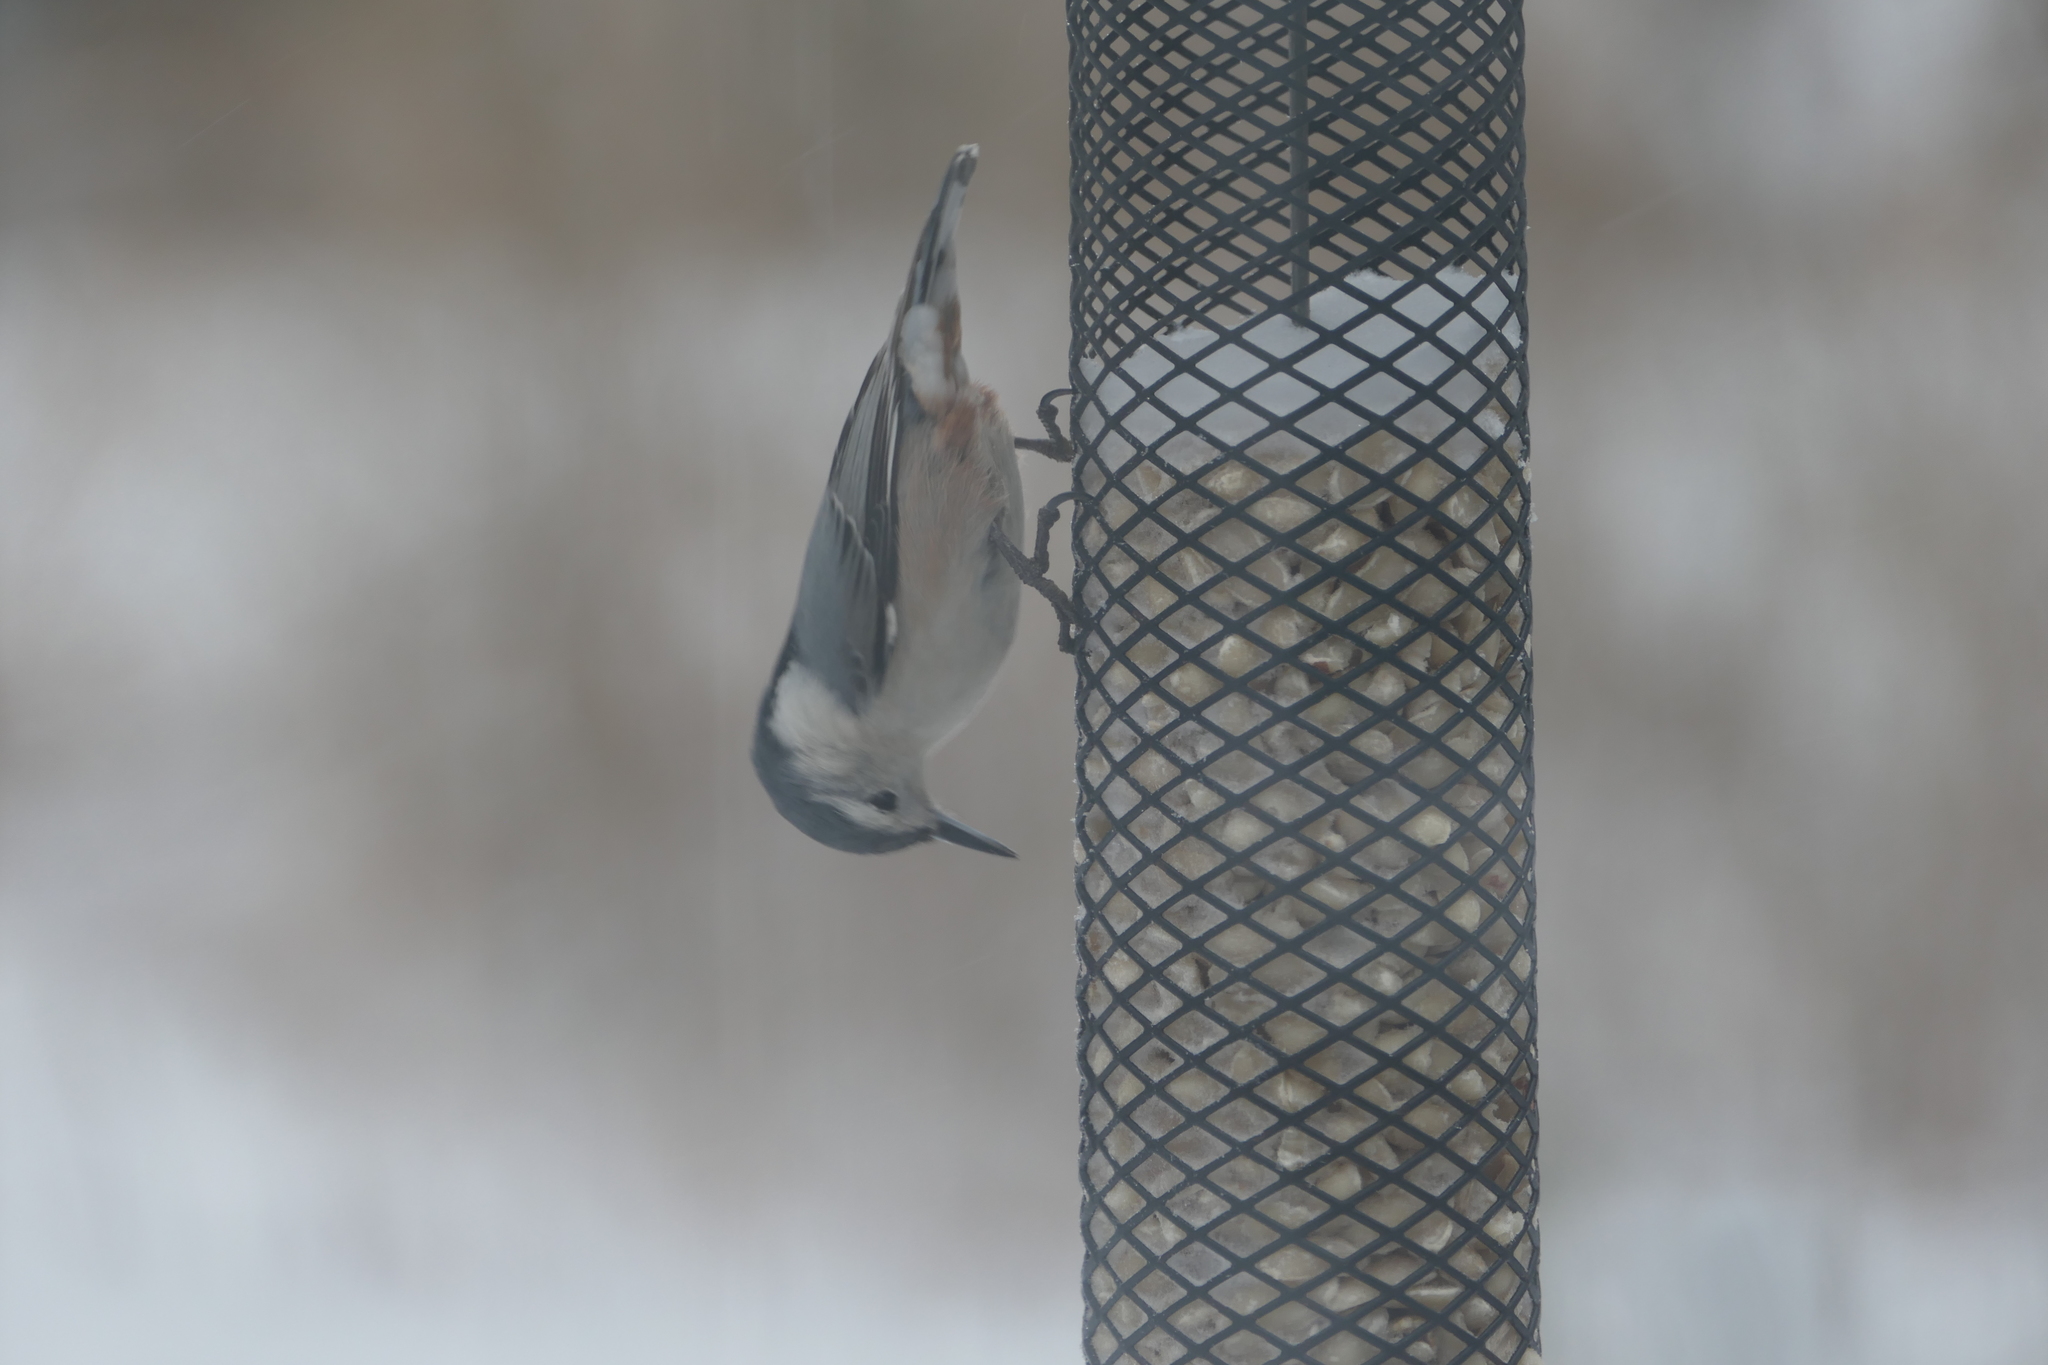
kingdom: Animalia
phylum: Chordata
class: Aves
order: Passeriformes
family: Sittidae
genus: Sitta
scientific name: Sitta carolinensis
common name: White-breasted nuthatch
